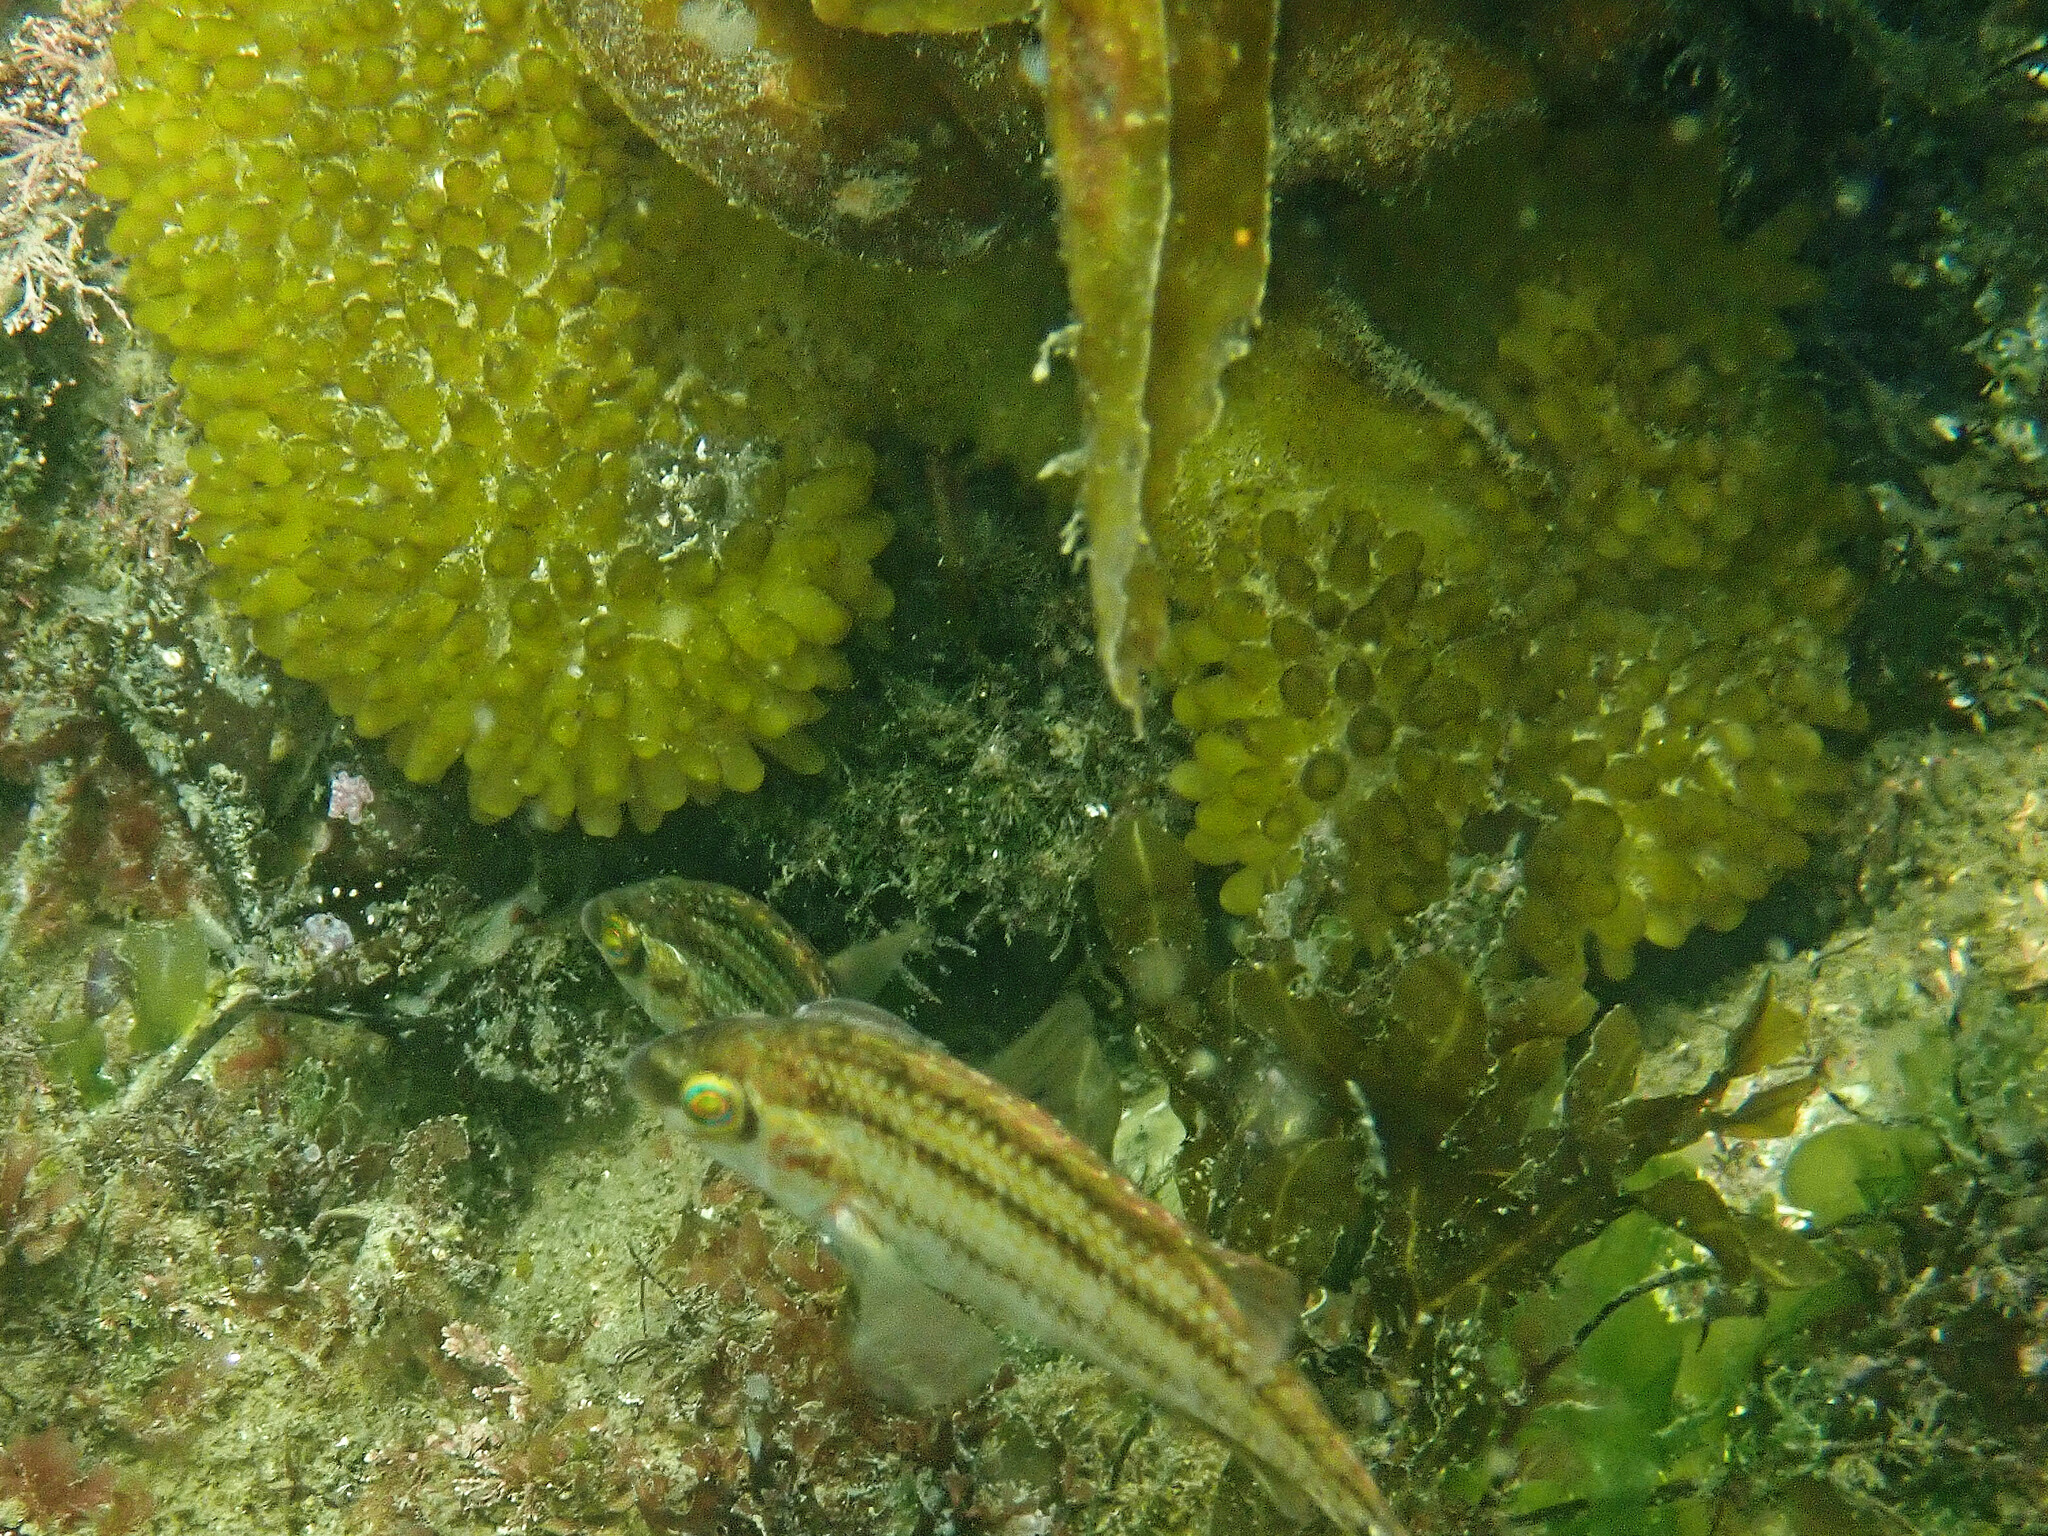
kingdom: Chromista
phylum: Ochrophyta
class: Phaeophyceae
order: Tilopteridales
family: Phyllariaceae
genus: Saccorhiza
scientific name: Saccorhiza polyschides
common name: Furbelows
